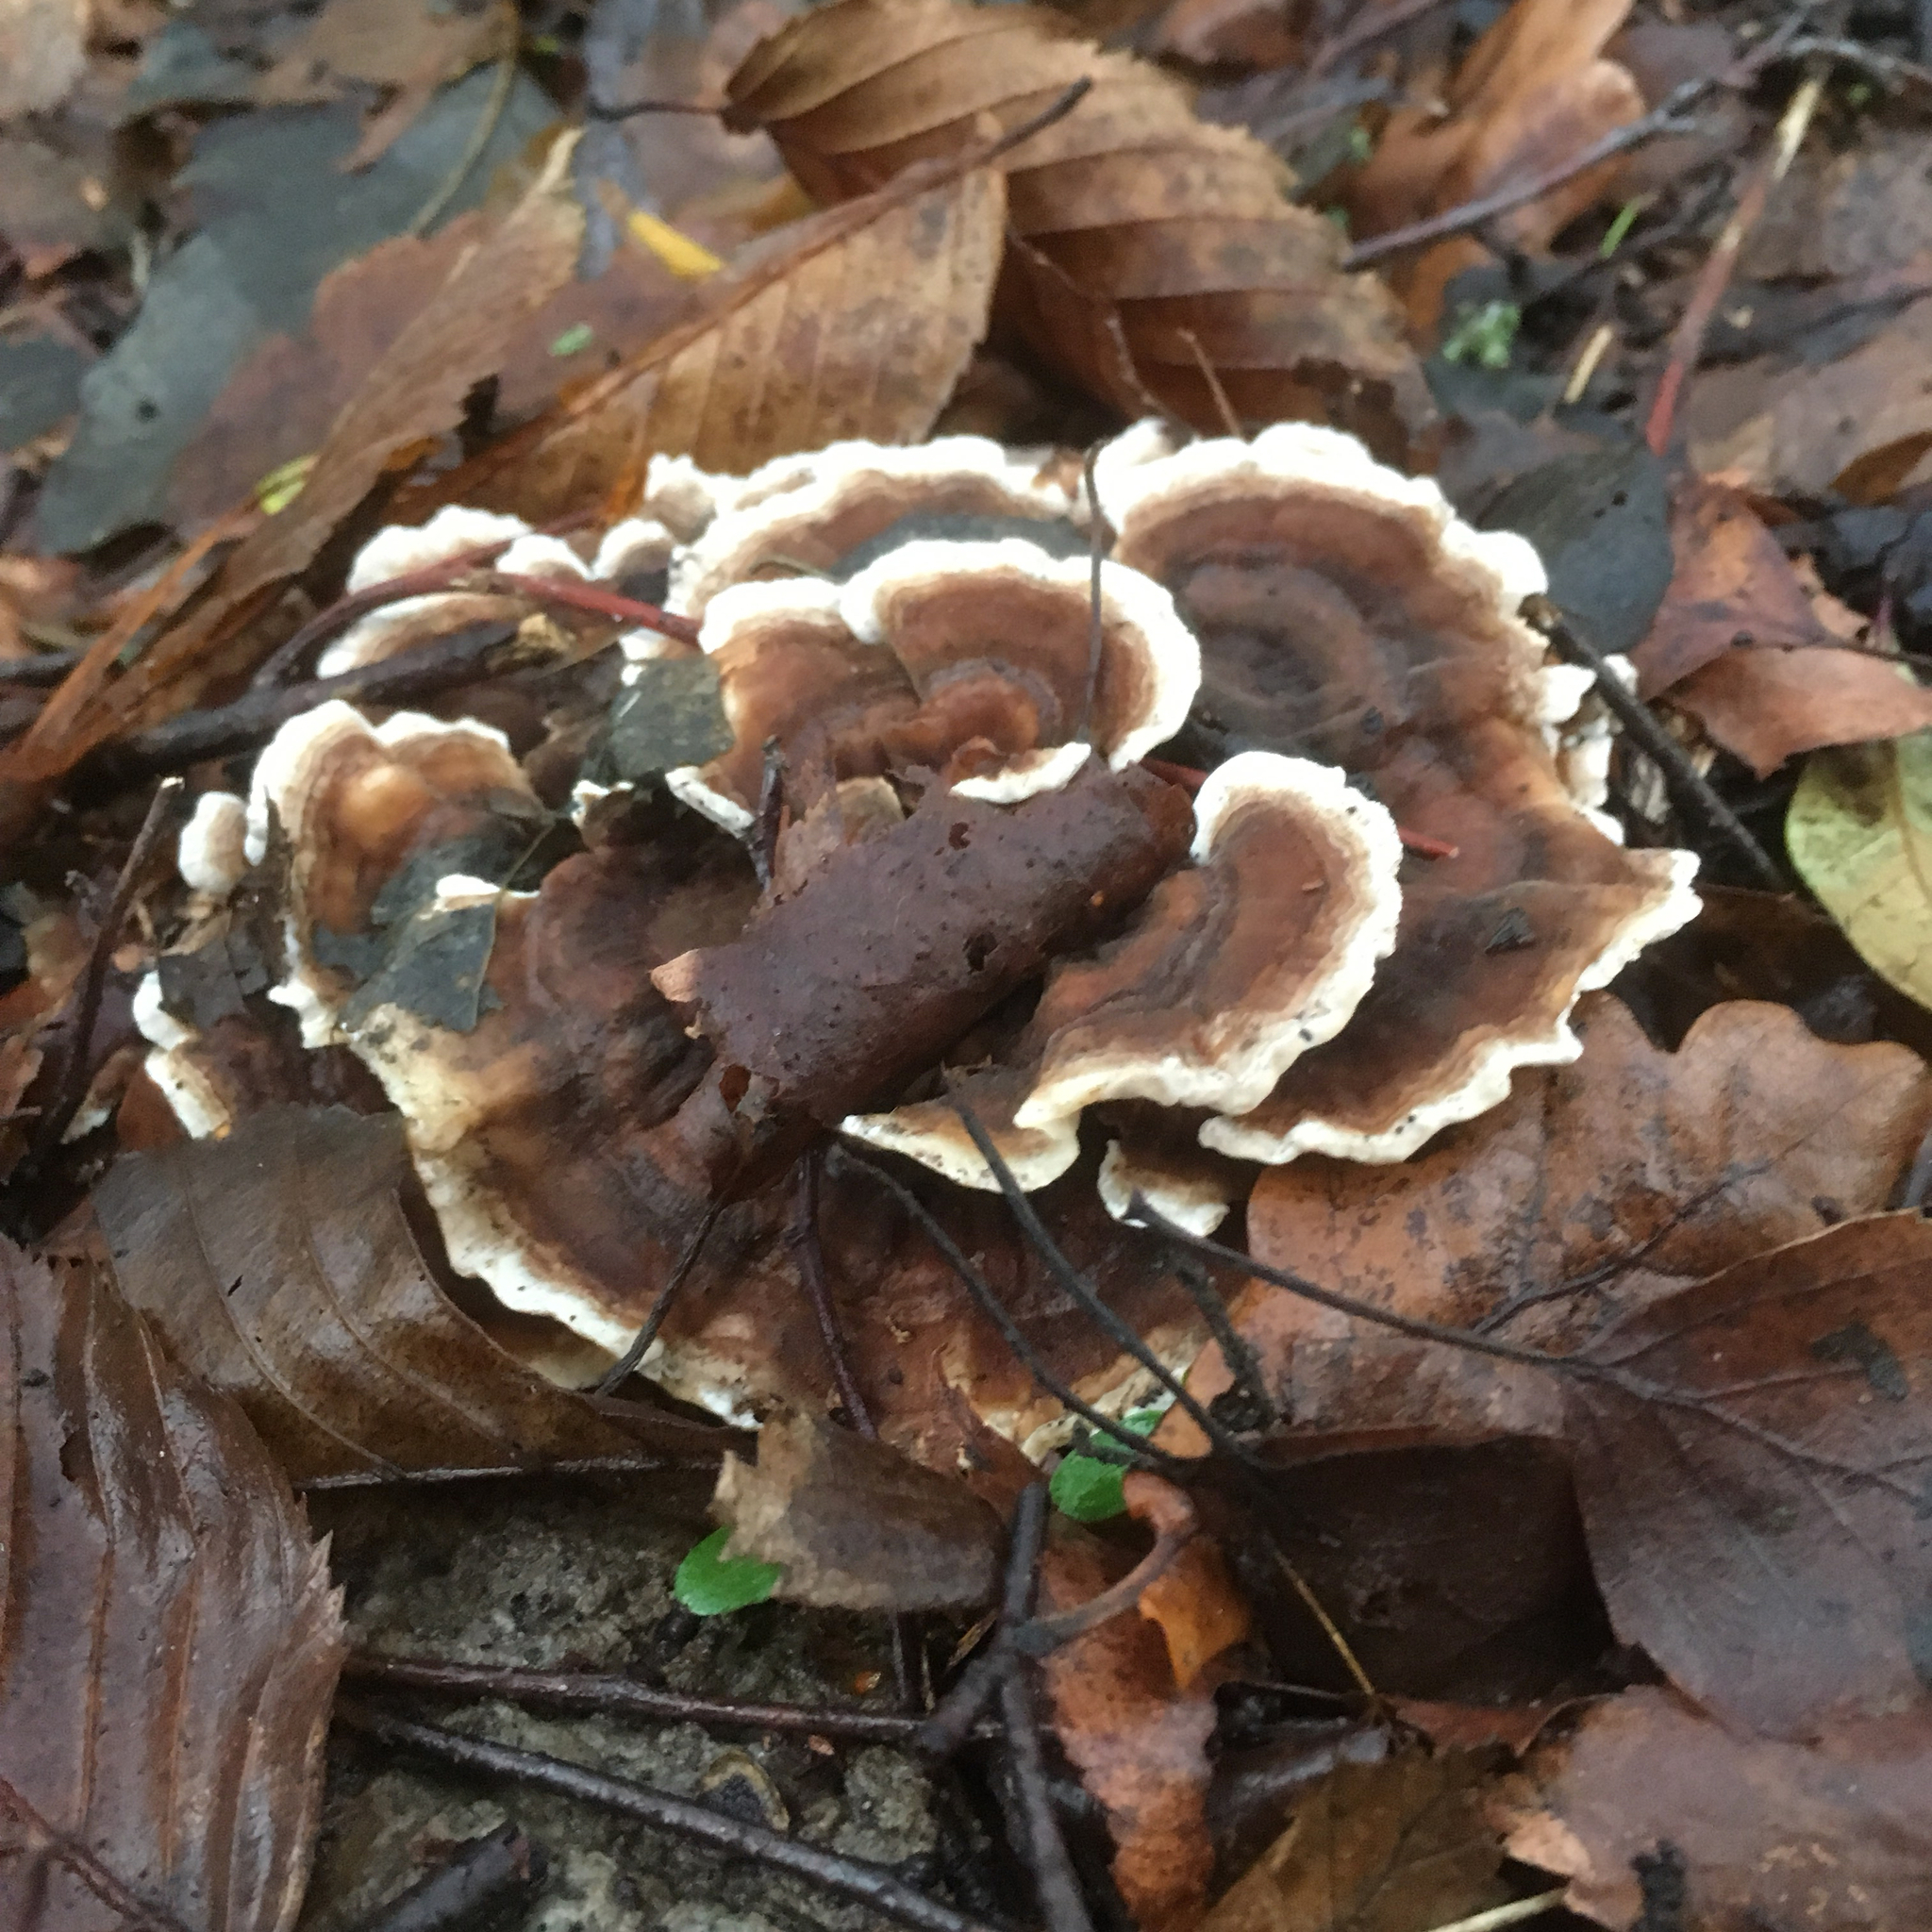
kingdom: Fungi
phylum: Basidiomycota
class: Agaricomycetes
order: Polyporales
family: Polyporaceae
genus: Trametes
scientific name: Trametes versicolor
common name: Turkeytail
